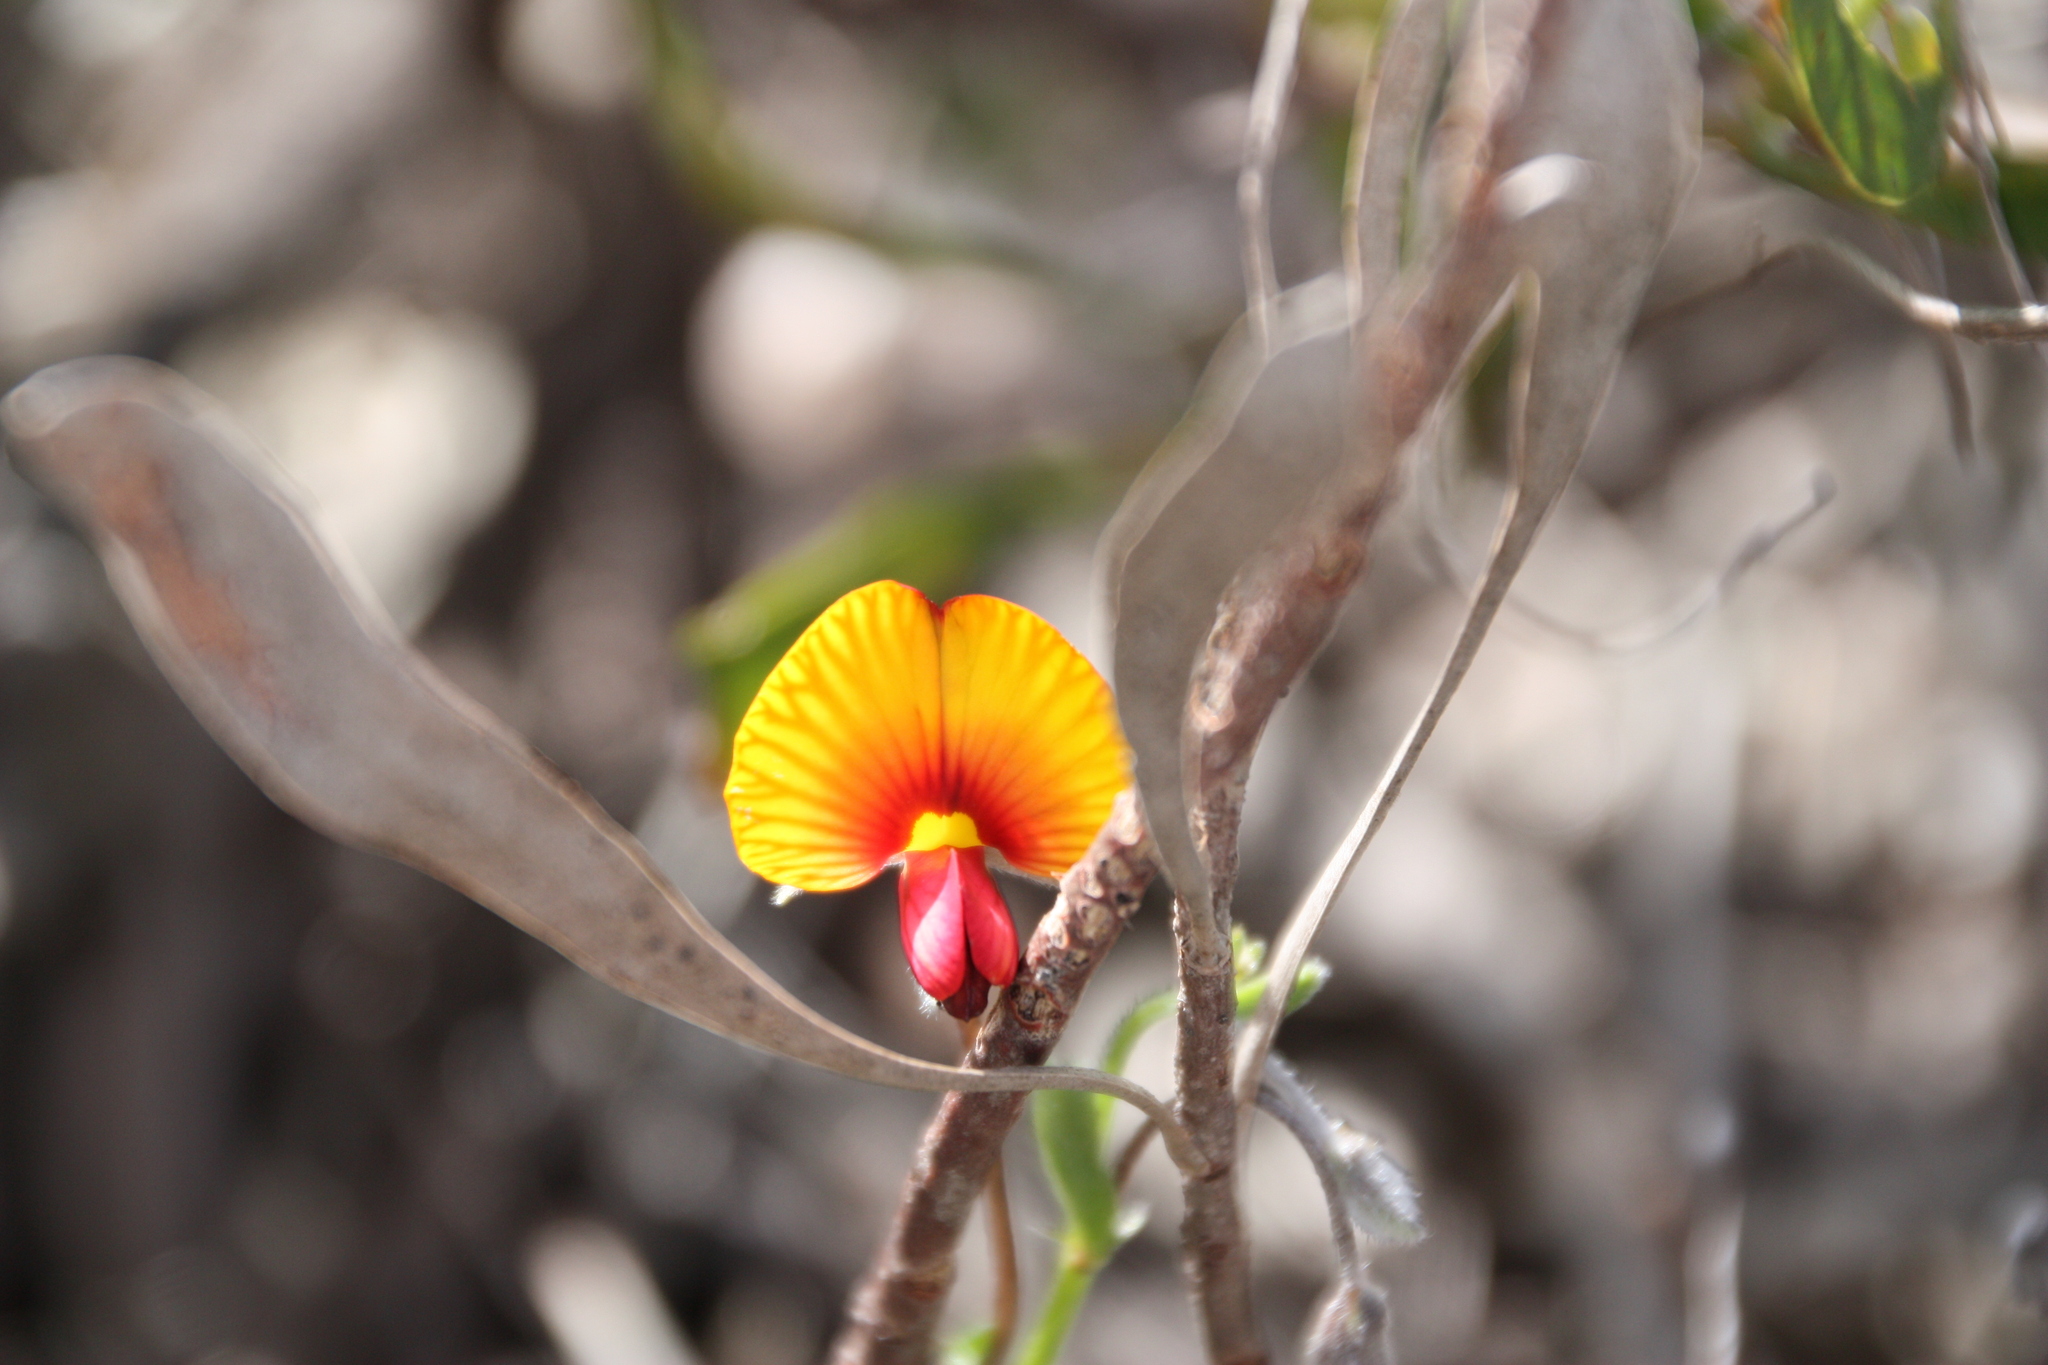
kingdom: Plantae
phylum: Tracheophyta
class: Magnoliopsida
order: Fabales
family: Fabaceae
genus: Isotropis
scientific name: Isotropis cuneifolia
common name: Granny bonnets
